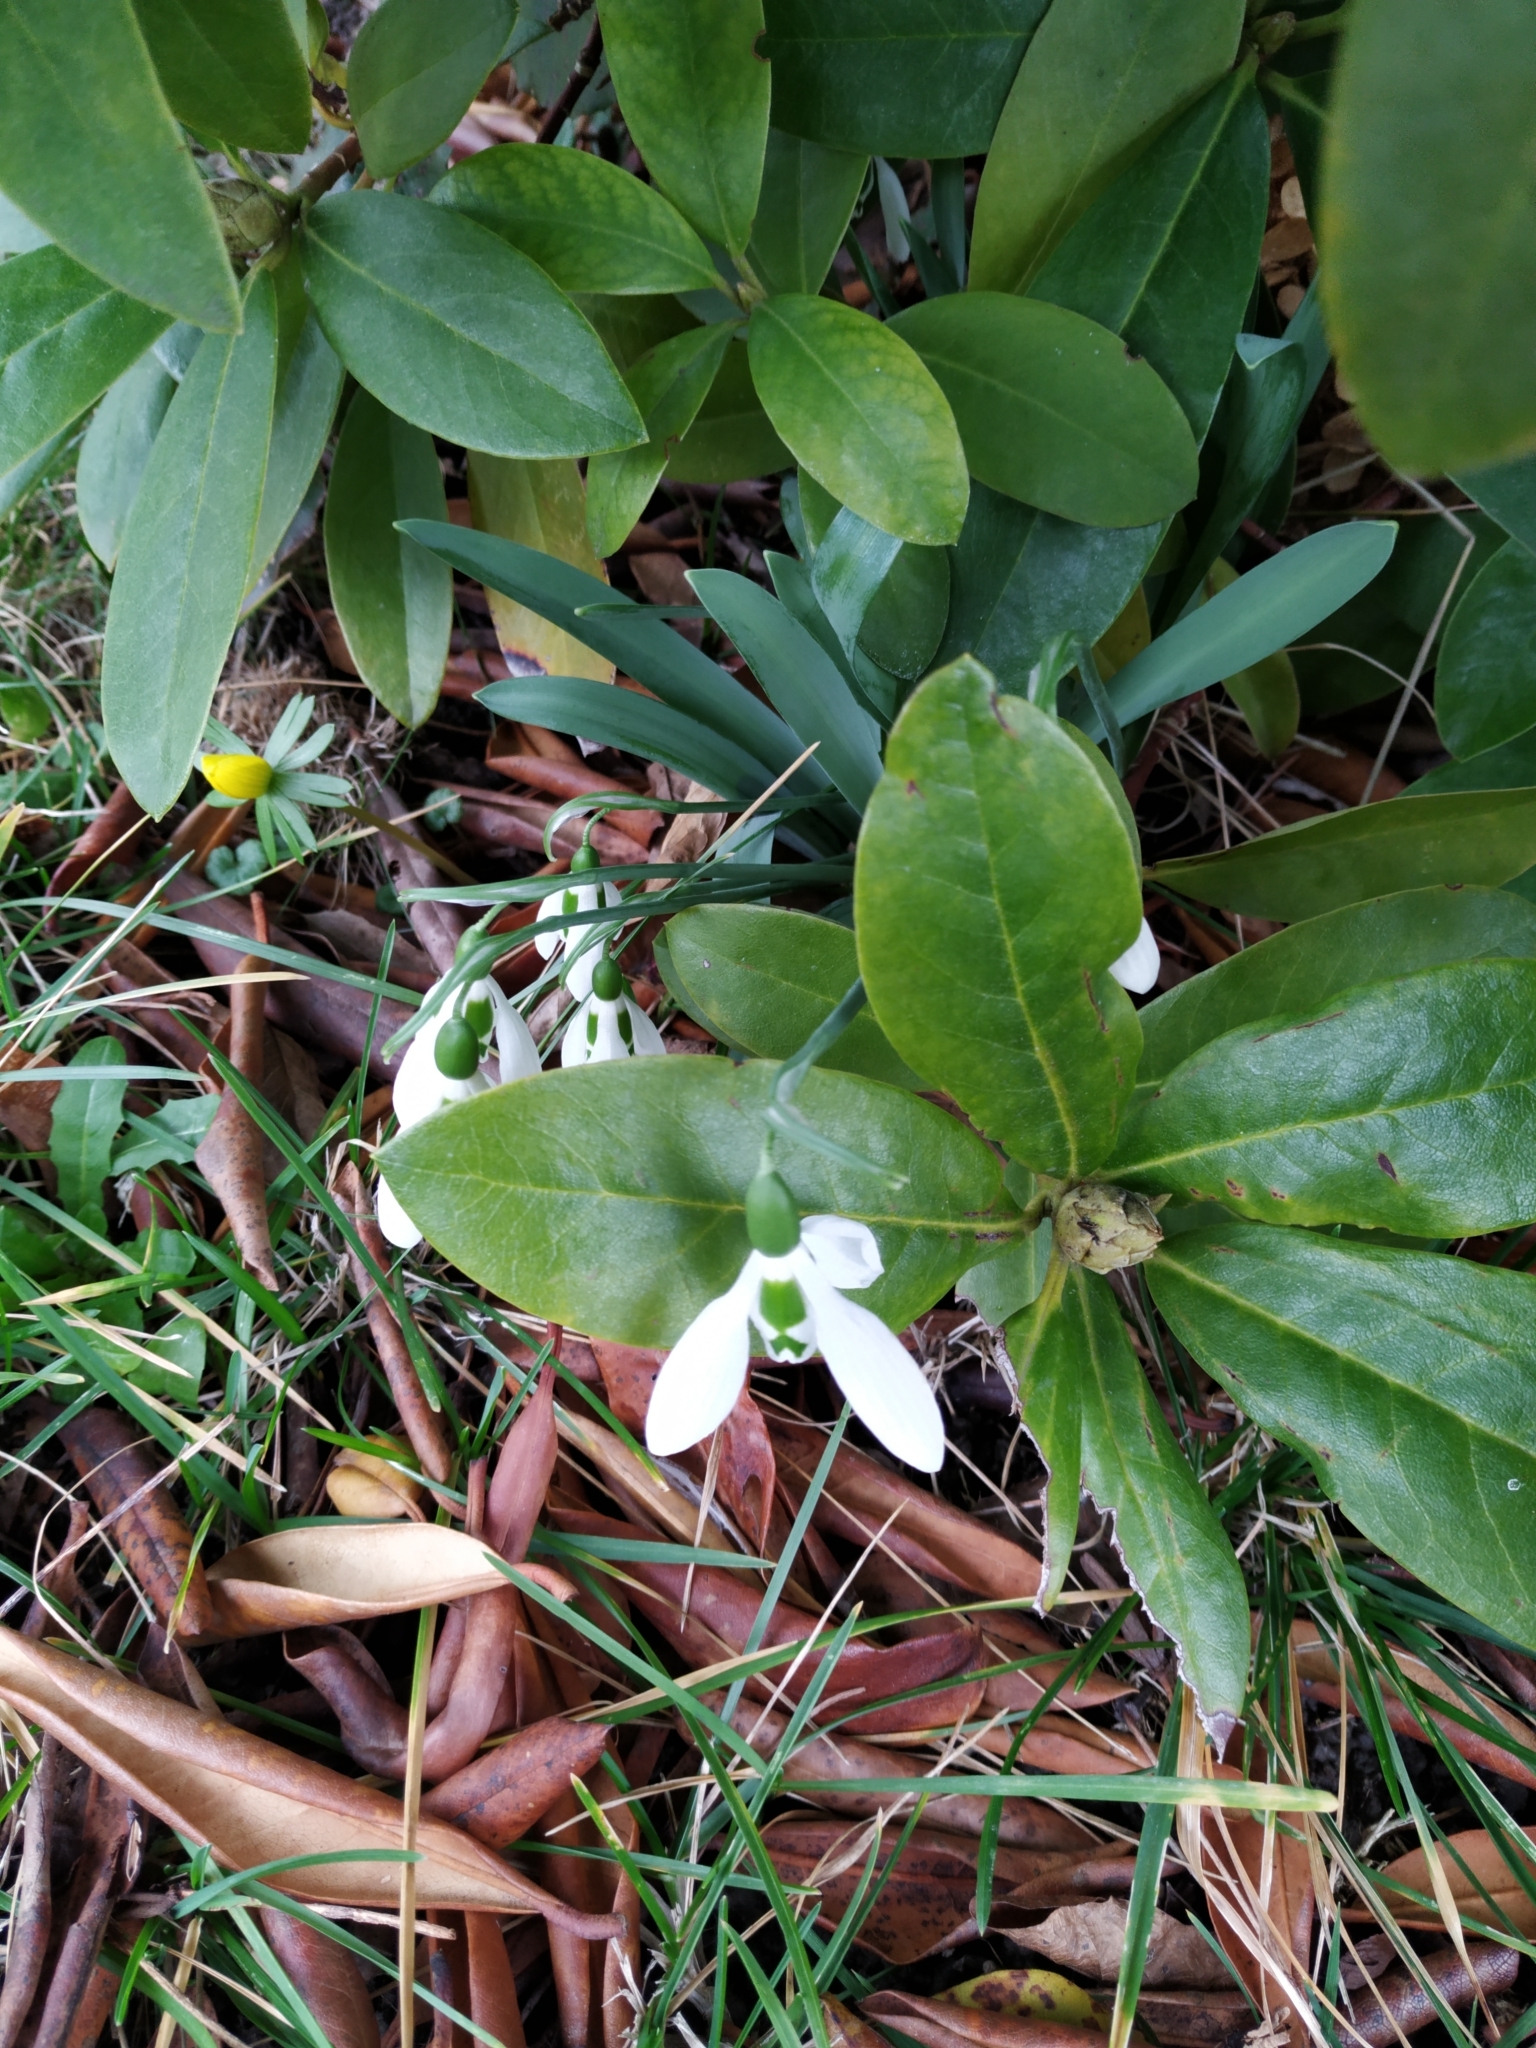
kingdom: Plantae
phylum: Tracheophyta
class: Liliopsida
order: Asparagales
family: Amaryllidaceae
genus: Galanthus
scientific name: Galanthus elwesii
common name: Greater snowdrop
